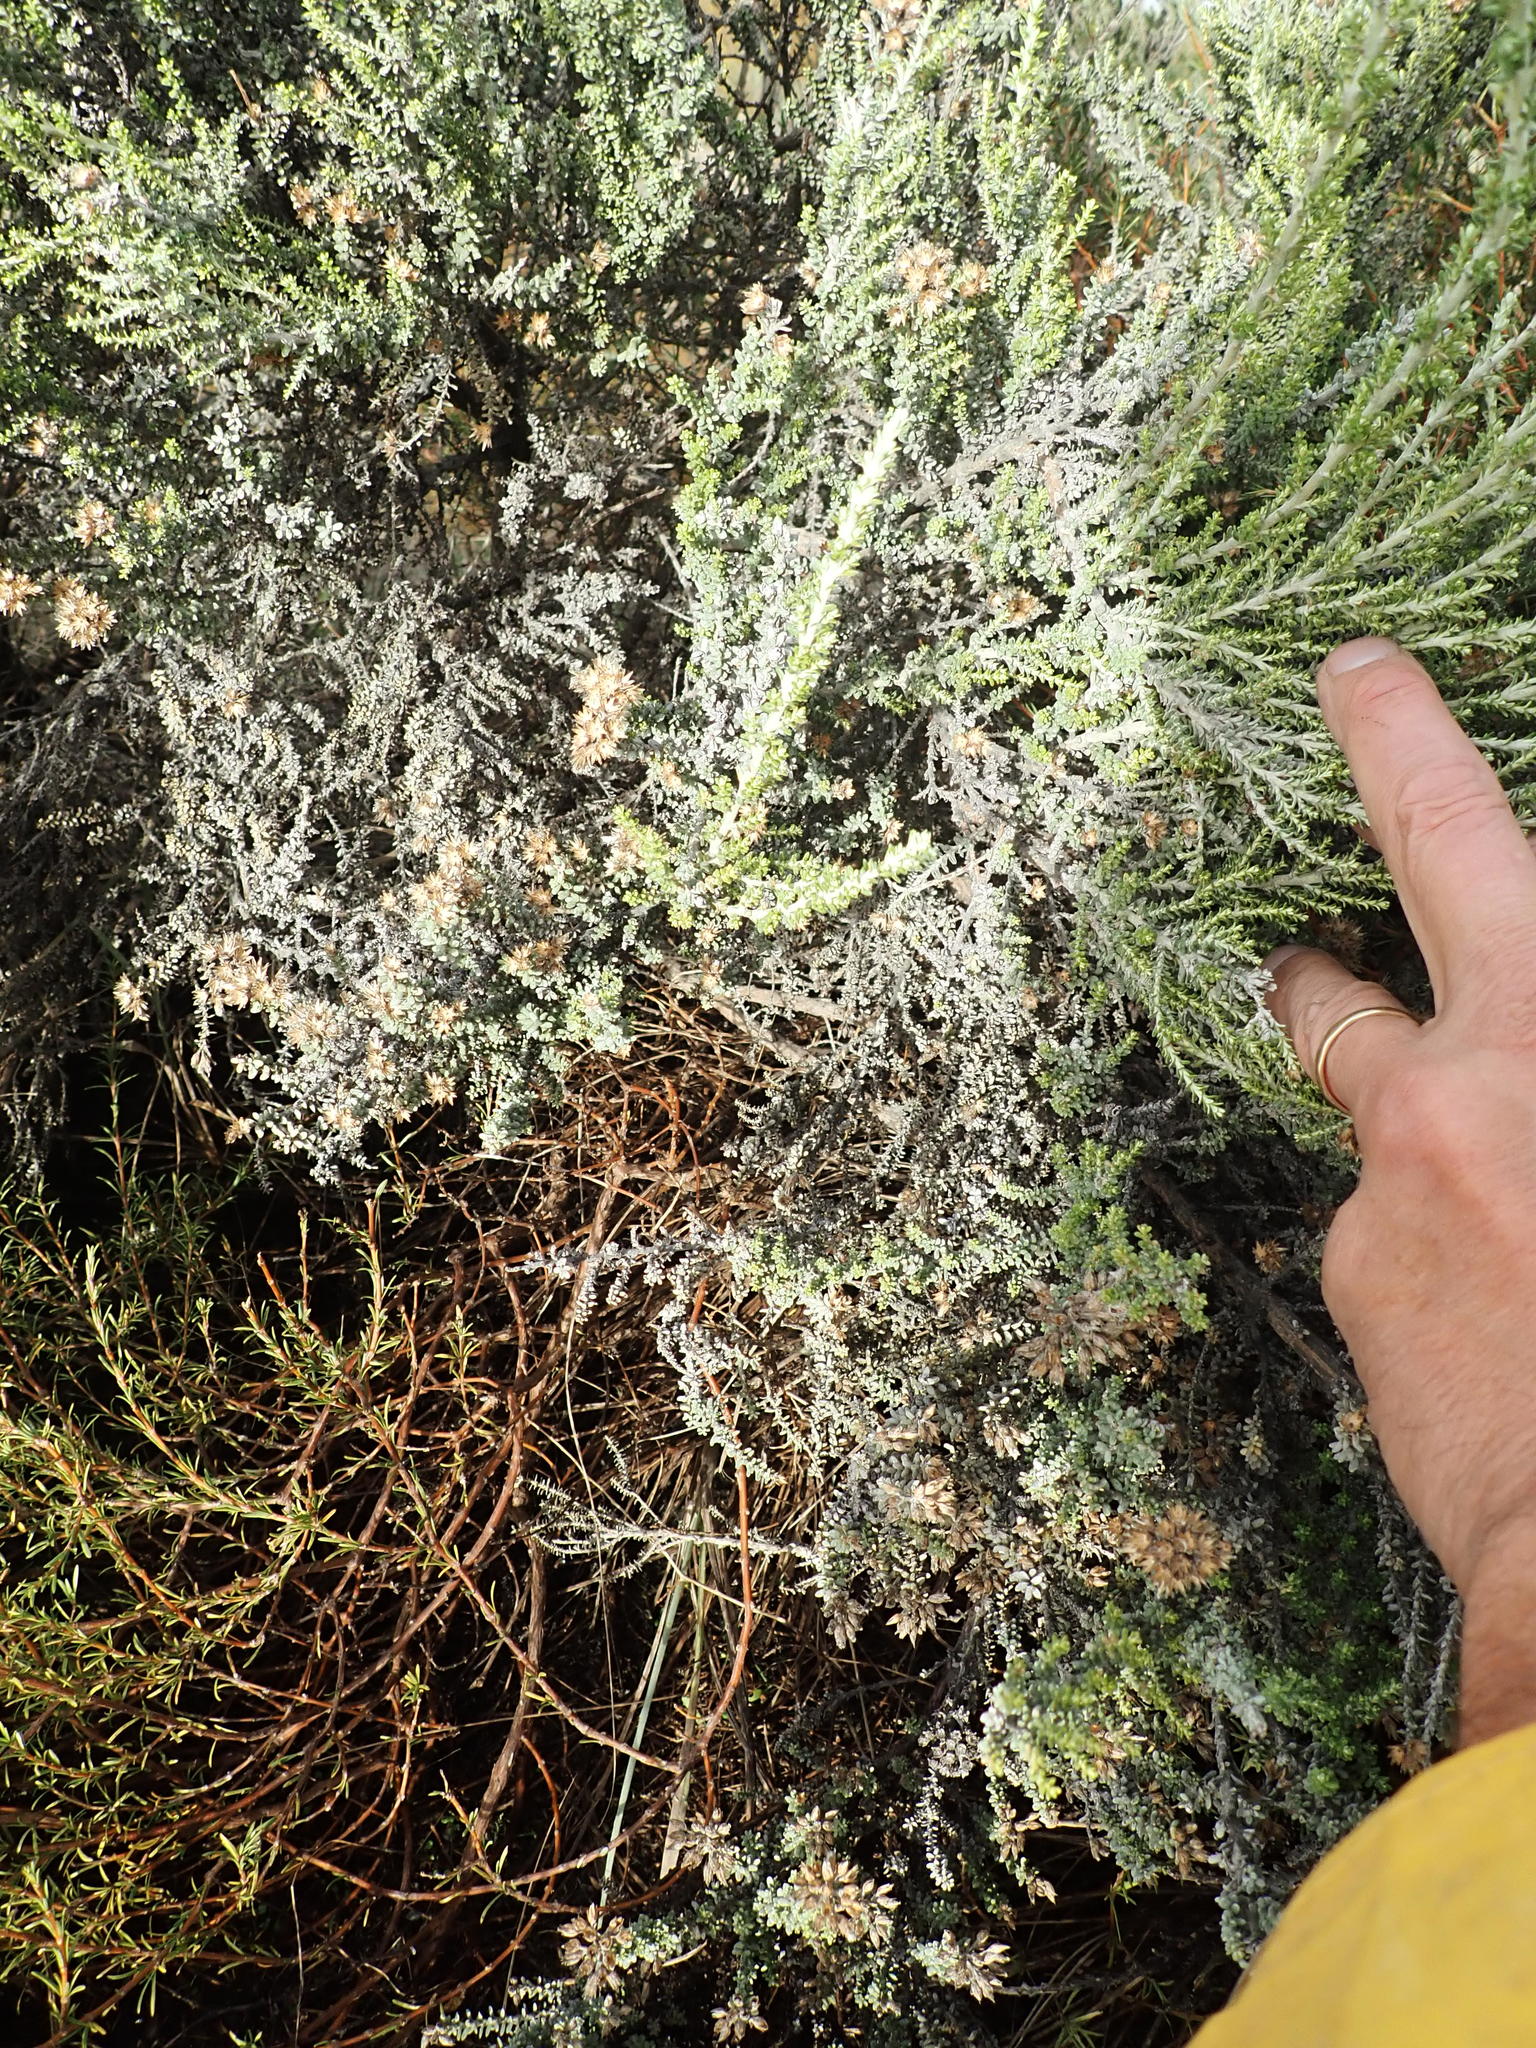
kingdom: Plantae
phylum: Tracheophyta
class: Magnoliopsida
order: Asterales
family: Asteraceae
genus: Ozothamnus
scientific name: Ozothamnus leptophyllus
